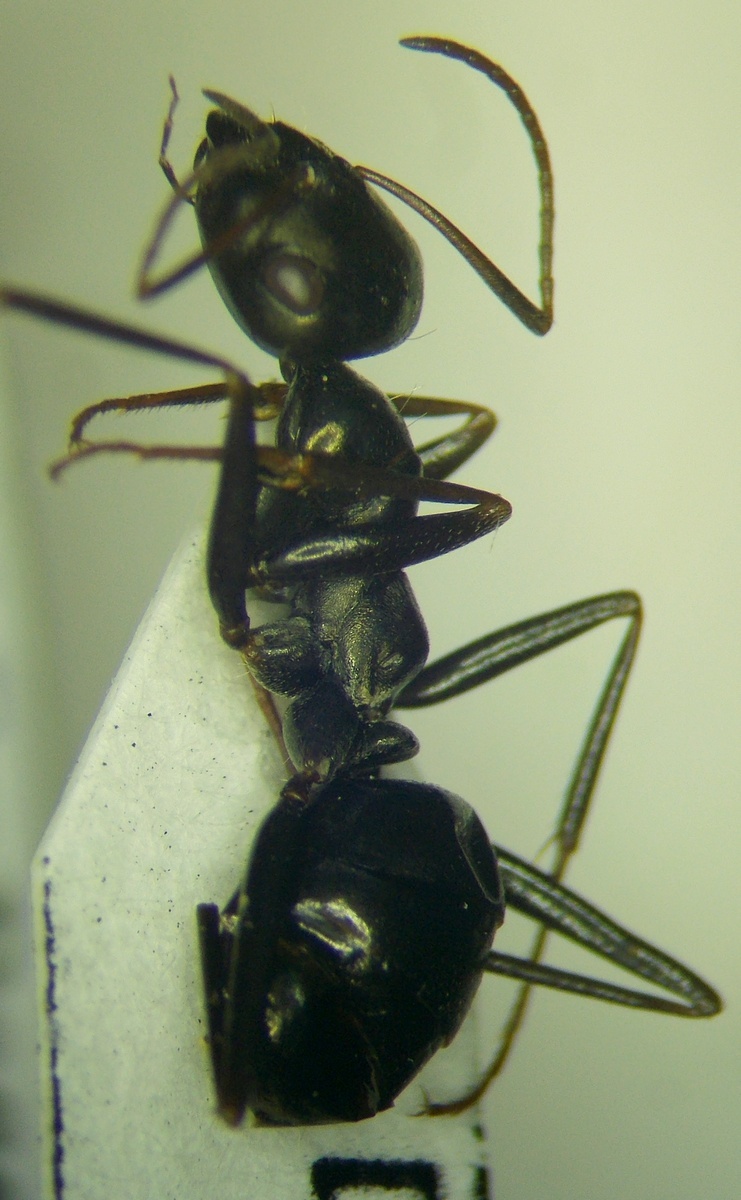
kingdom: Animalia
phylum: Arthropoda
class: Insecta
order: Hymenoptera
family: Formicidae
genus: Cataglyphis
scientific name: Cataglyphis aenescens
